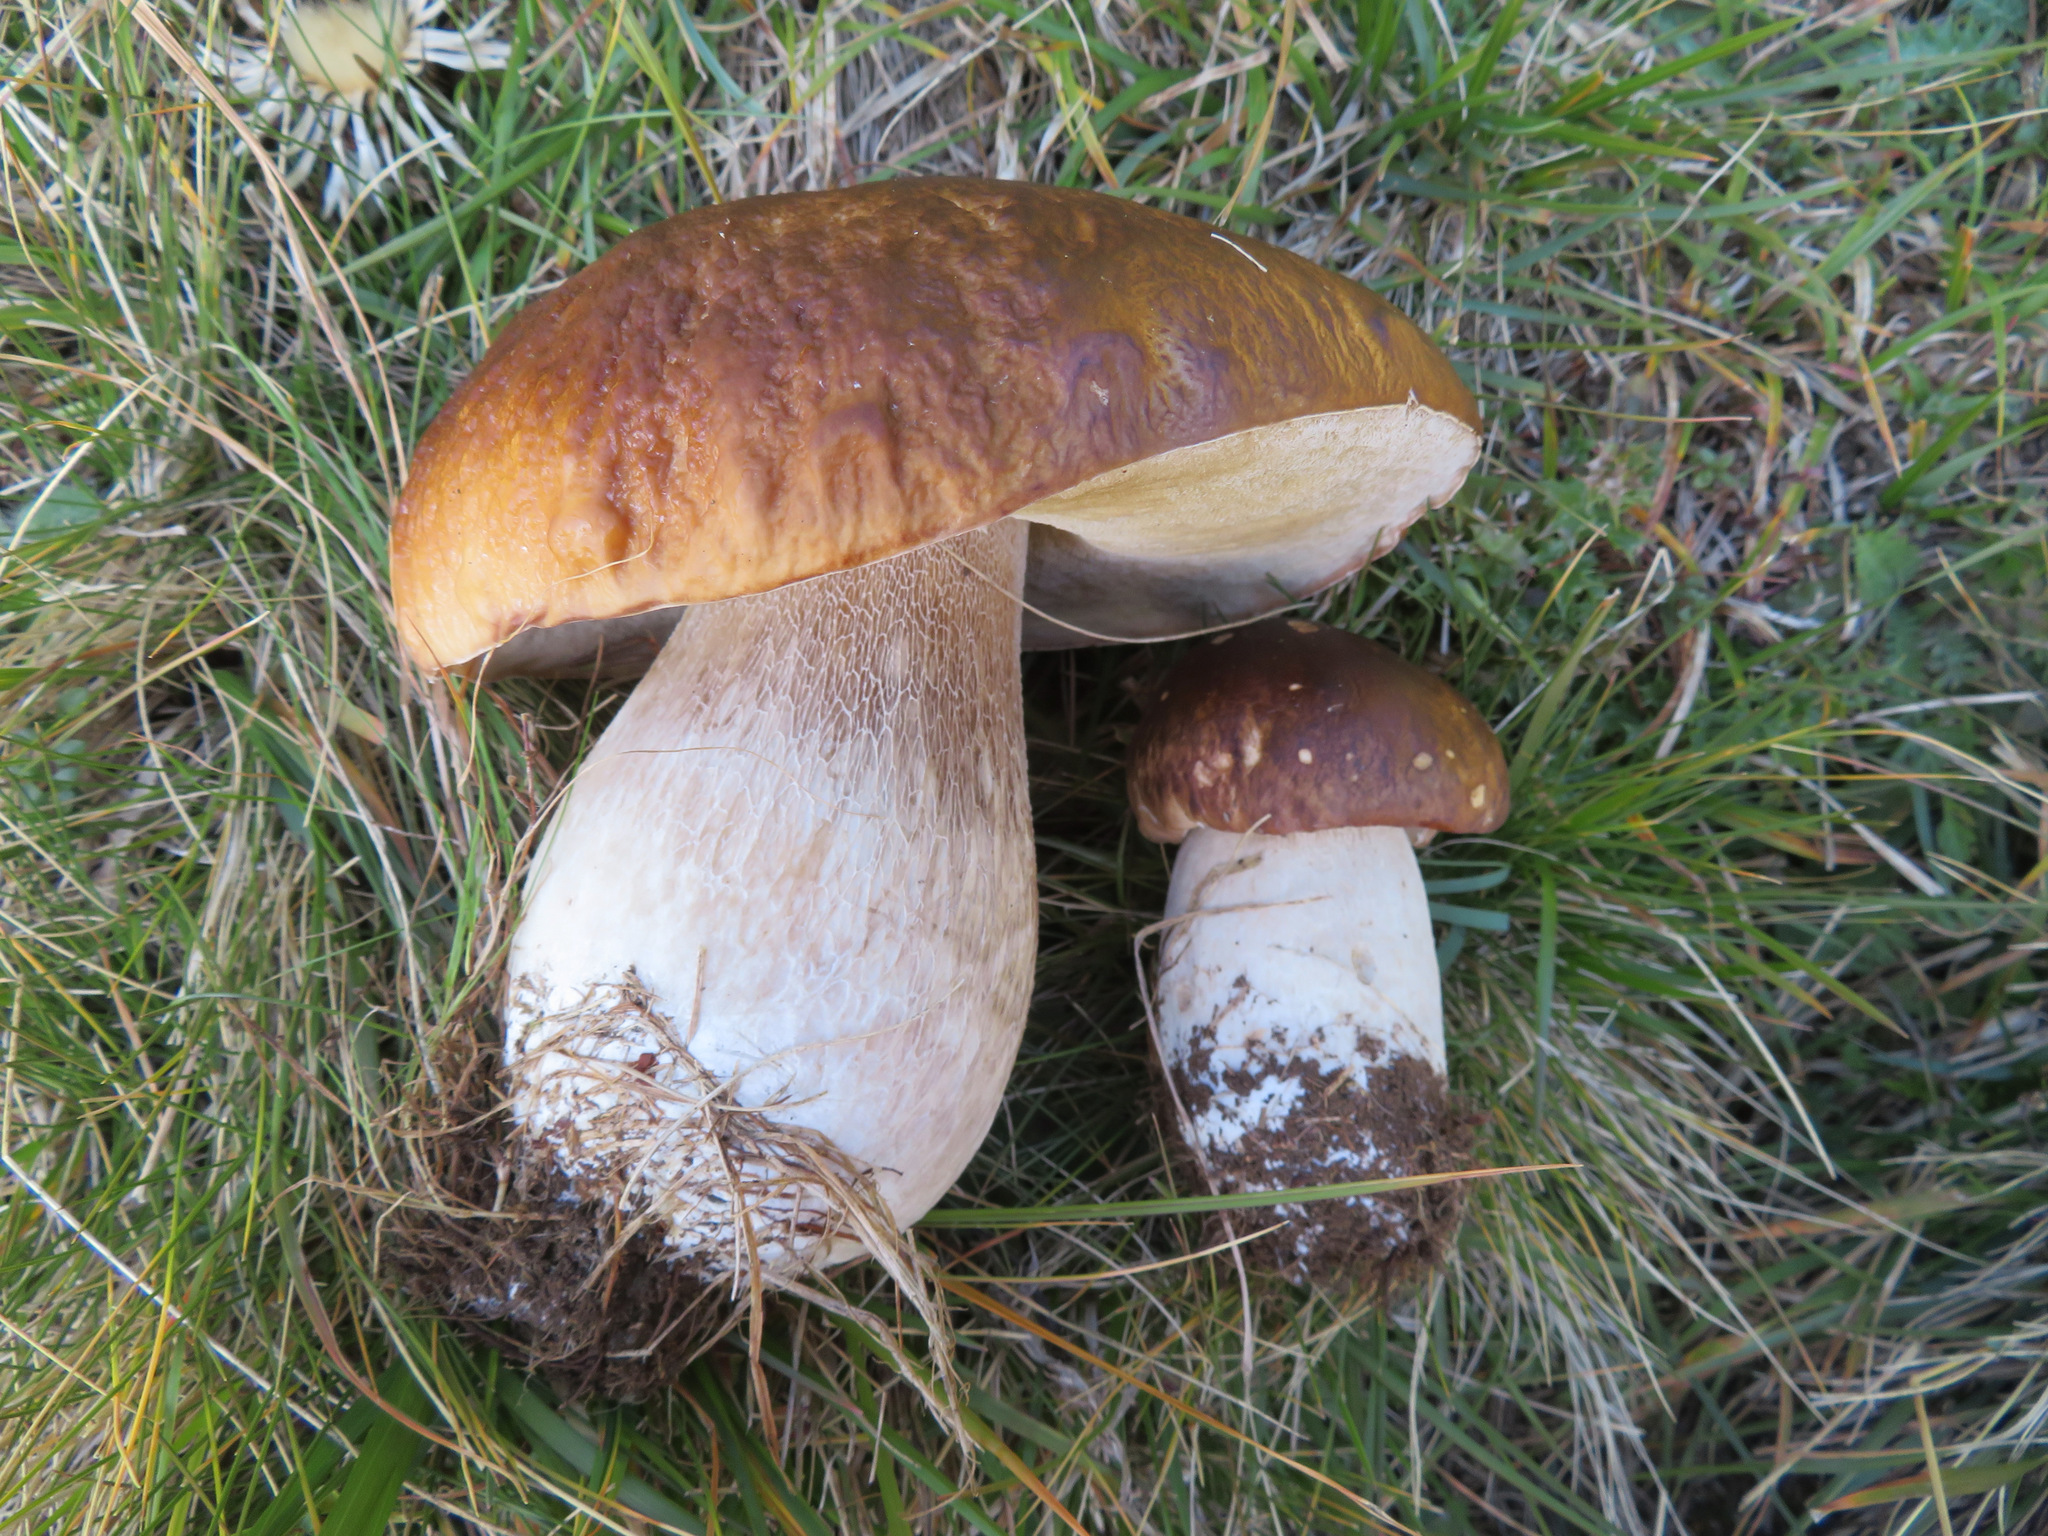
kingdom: Fungi
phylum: Basidiomycota
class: Agaricomycetes
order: Boletales
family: Boletaceae
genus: Boletus
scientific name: Boletus edulis
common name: Cep
